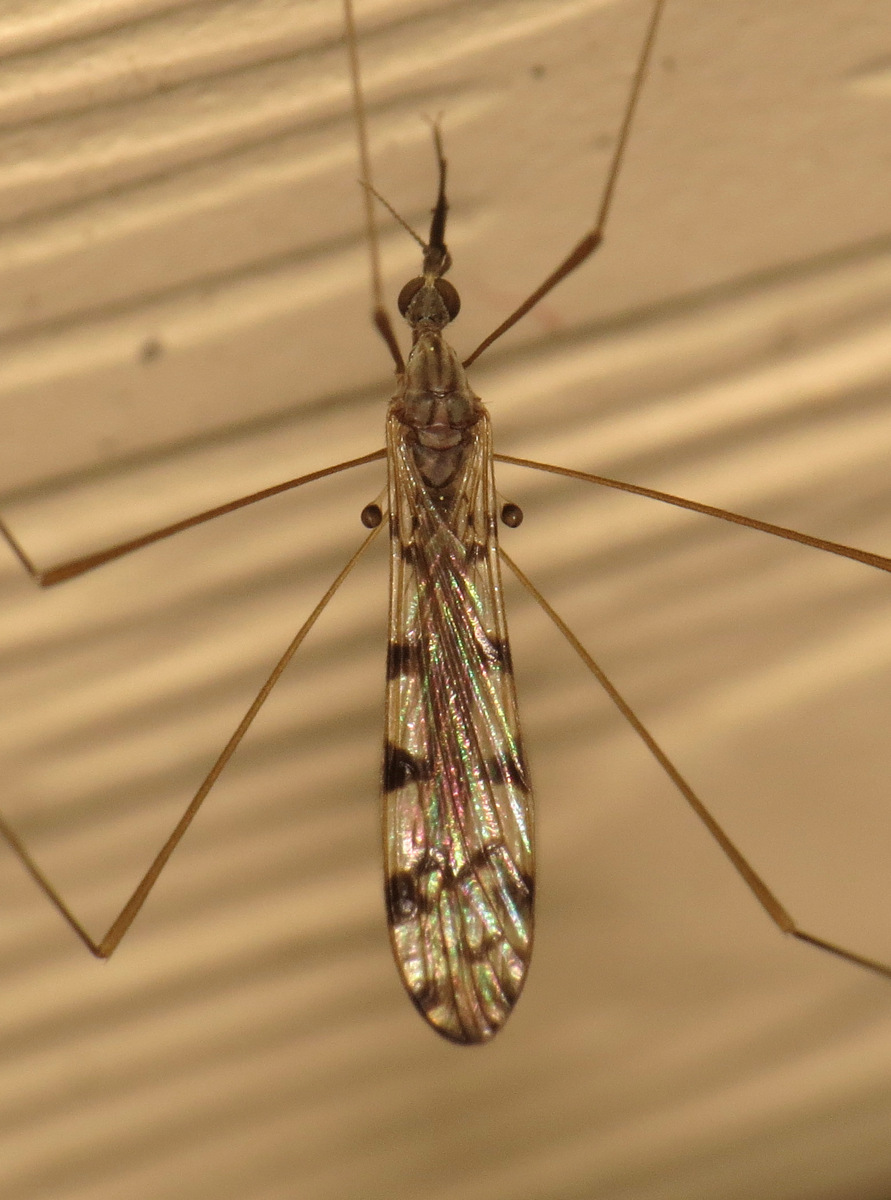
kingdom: Animalia
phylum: Arthropoda
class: Insecta
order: Diptera
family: Limoniidae
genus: Geranomyia
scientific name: Geranomyia rostrata
